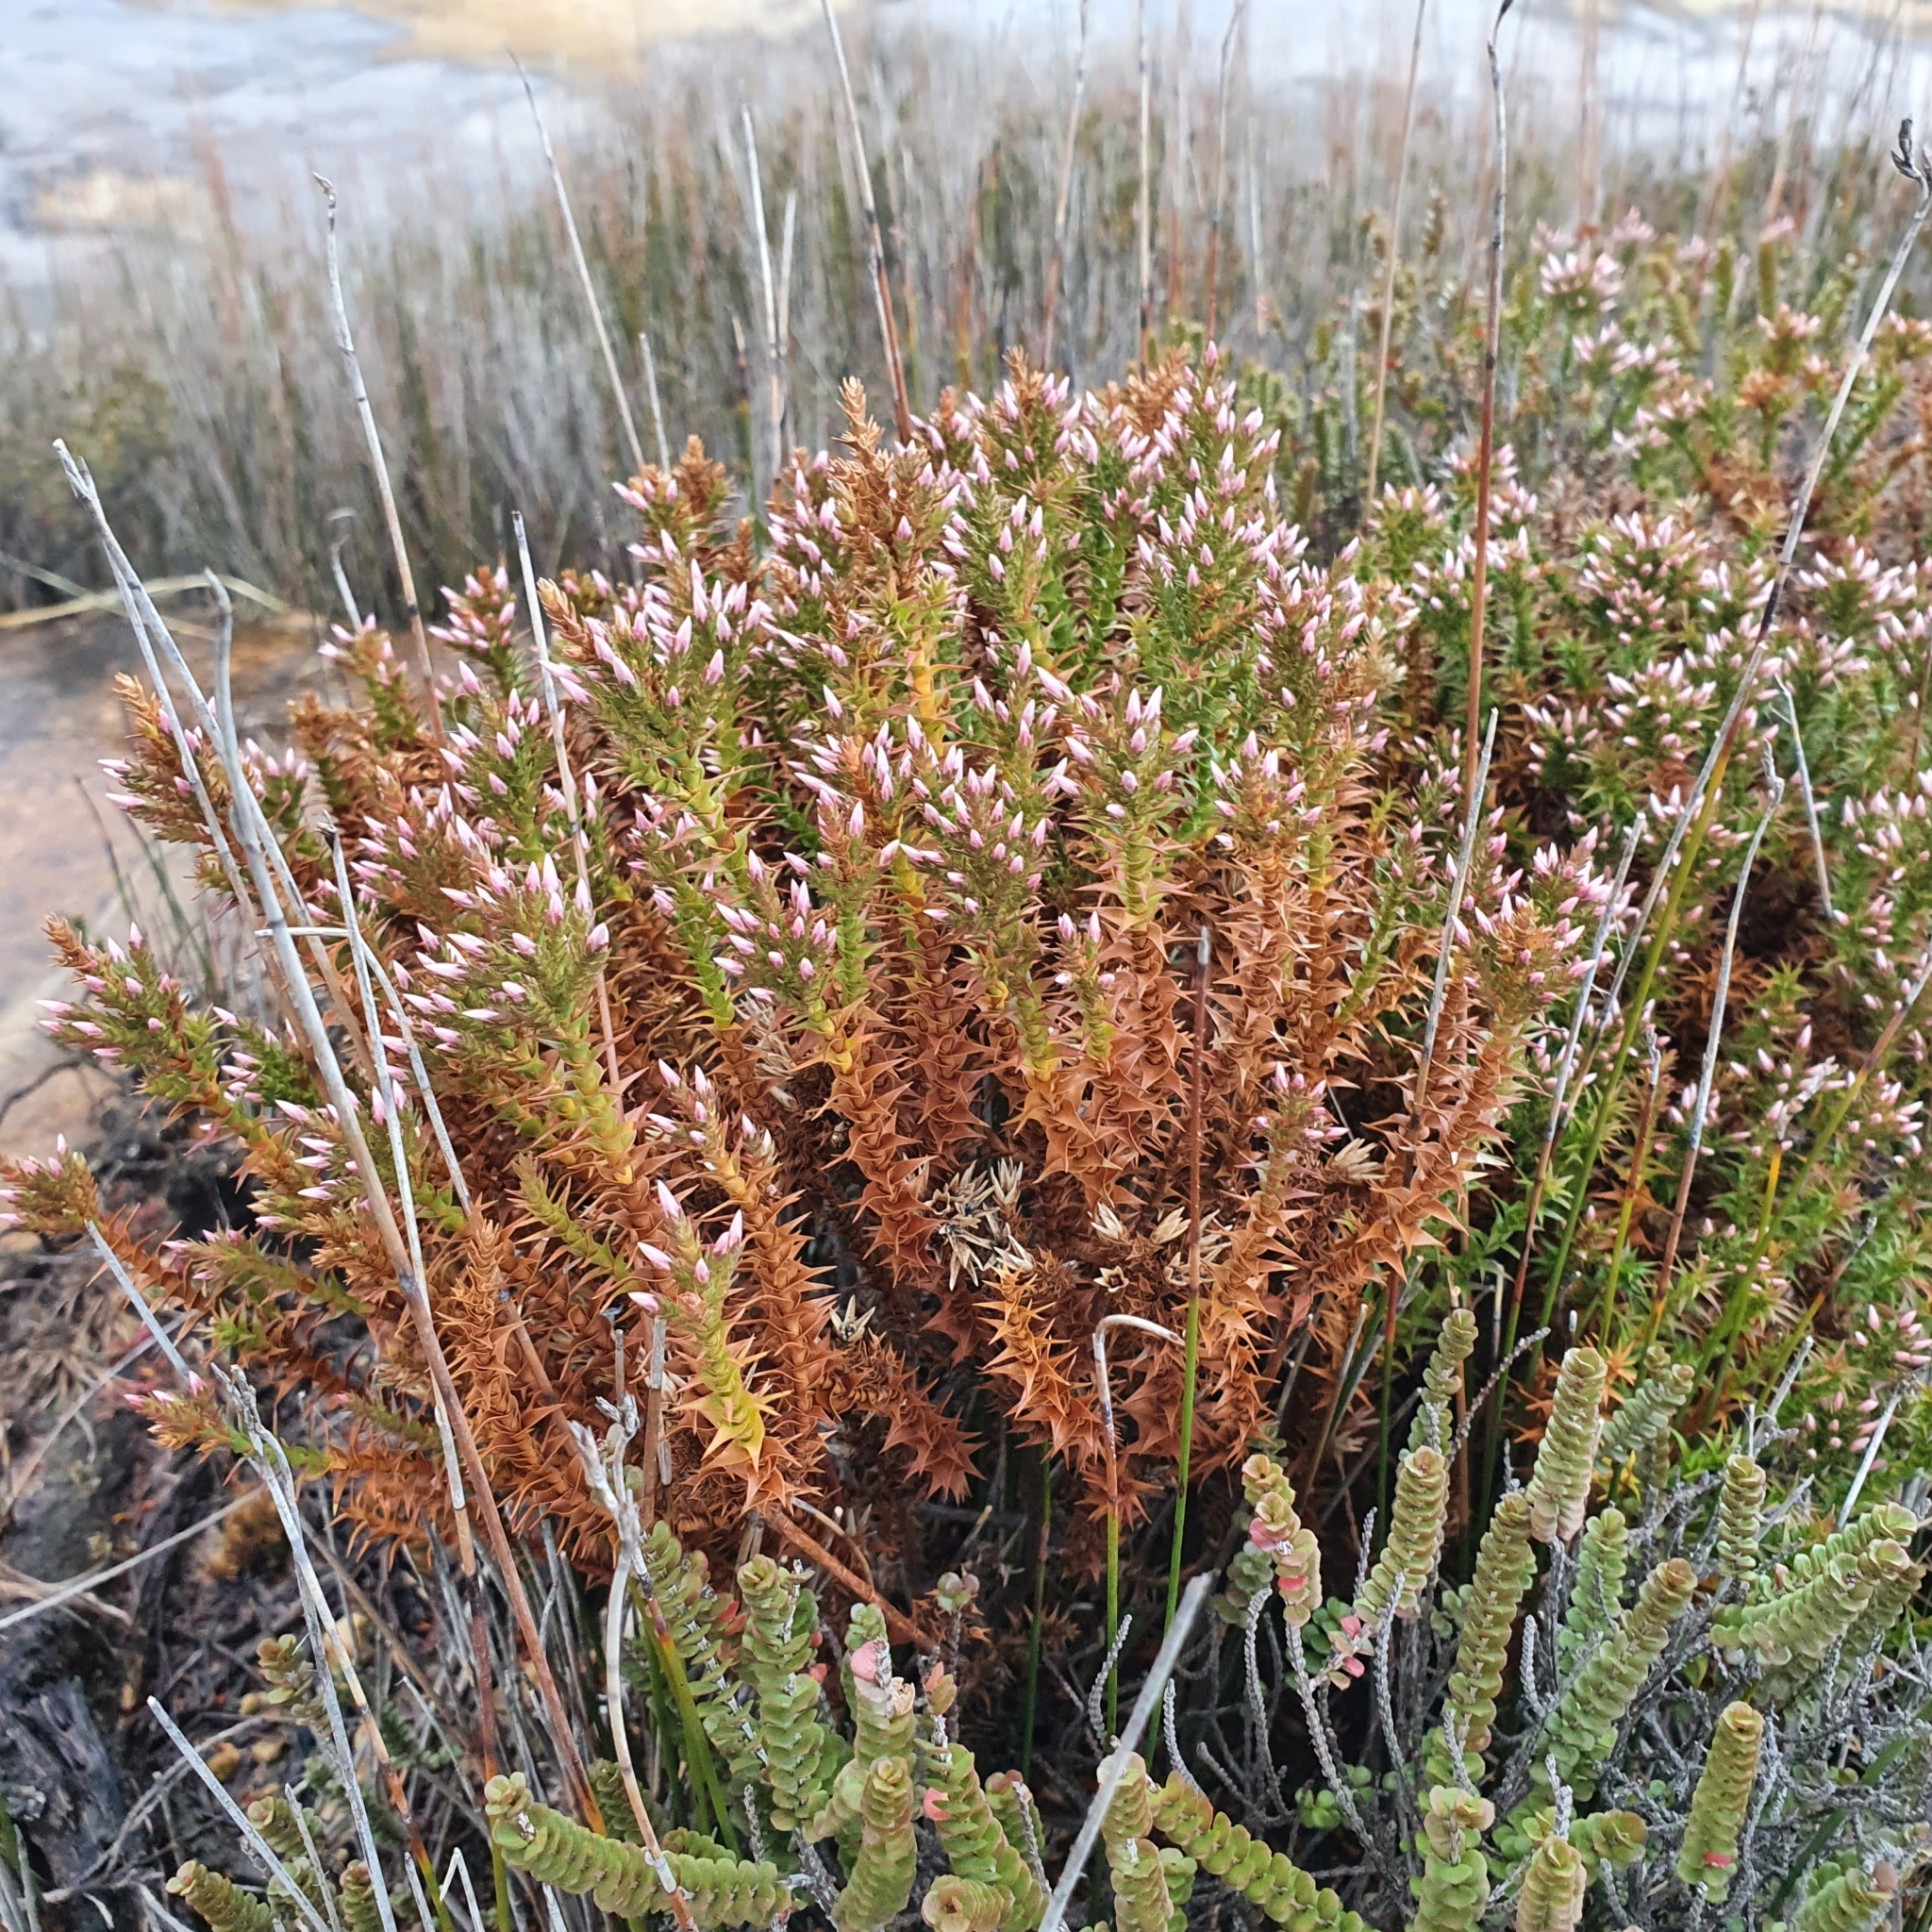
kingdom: Plantae
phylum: Tracheophyta
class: Magnoliopsida
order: Ericales
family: Ericaceae
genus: Sprengelia
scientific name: Sprengelia incarnata
